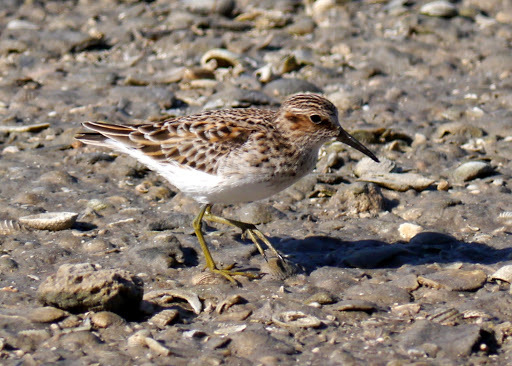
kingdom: Animalia
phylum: Chordata
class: Aves
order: Charadriiformes
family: Scolopacidae
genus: Calidris
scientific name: Calidris minutilla
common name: Least sandpiper
